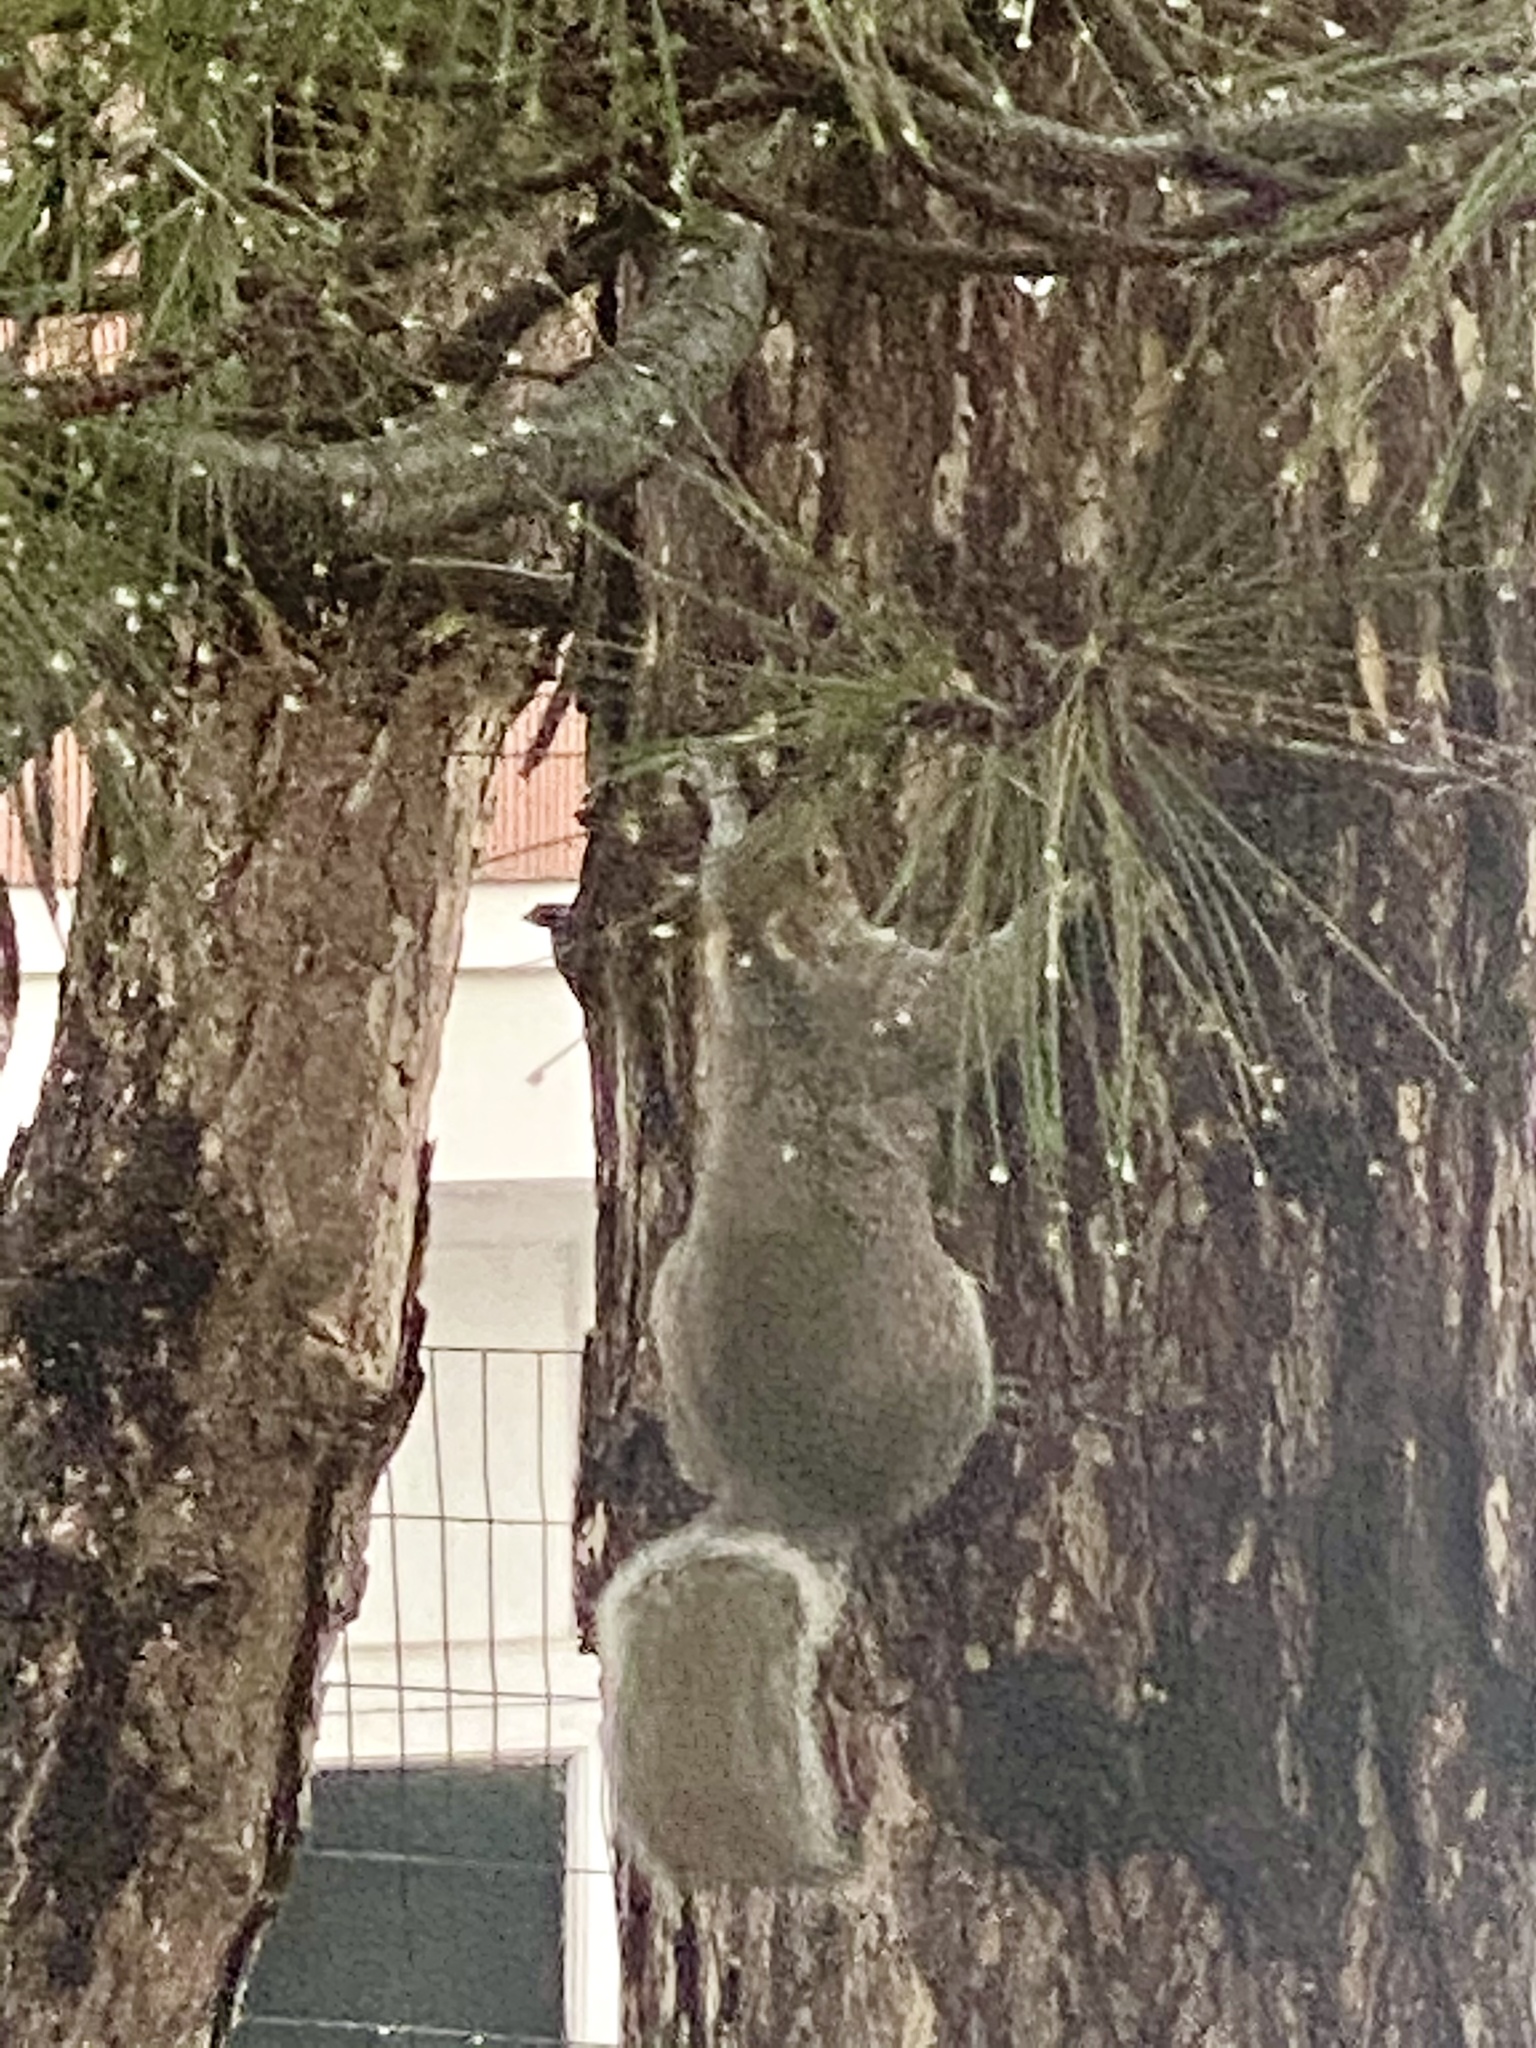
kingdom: Animalia
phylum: Chordata
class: Mammalia
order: Rodentia
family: Sciuridae
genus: Sciurus
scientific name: Sciurus carolinensis
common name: Eastern gray squirrel
